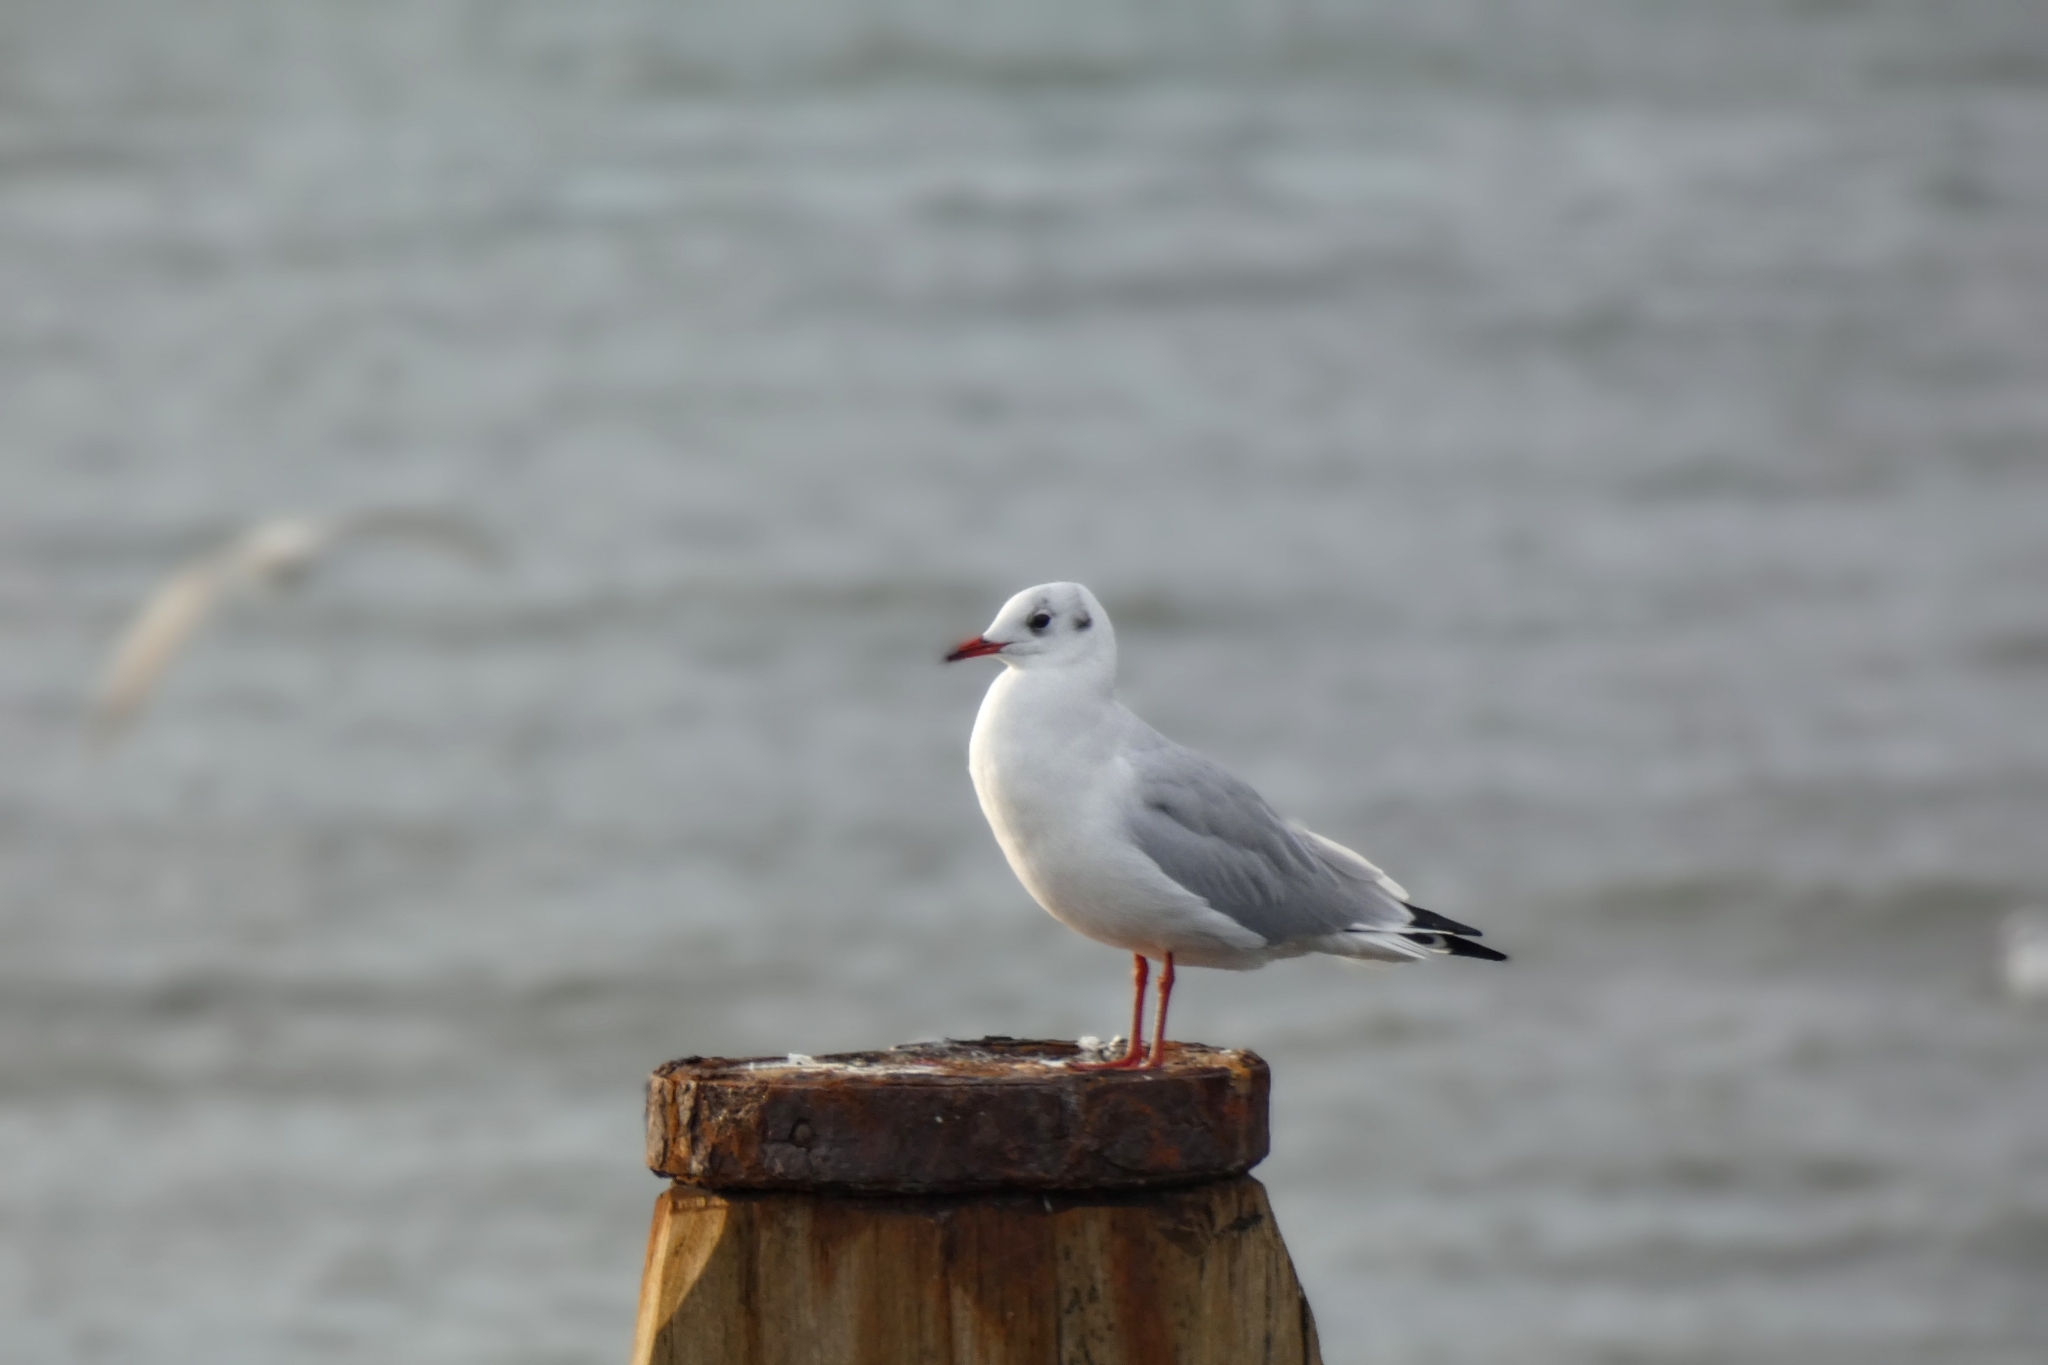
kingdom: Animalia
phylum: Chordata
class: Aves
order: Charadriiformes
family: Laridae
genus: Chroicocephalus
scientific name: Chroicocephalus ridibundus
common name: Black-headed gull
